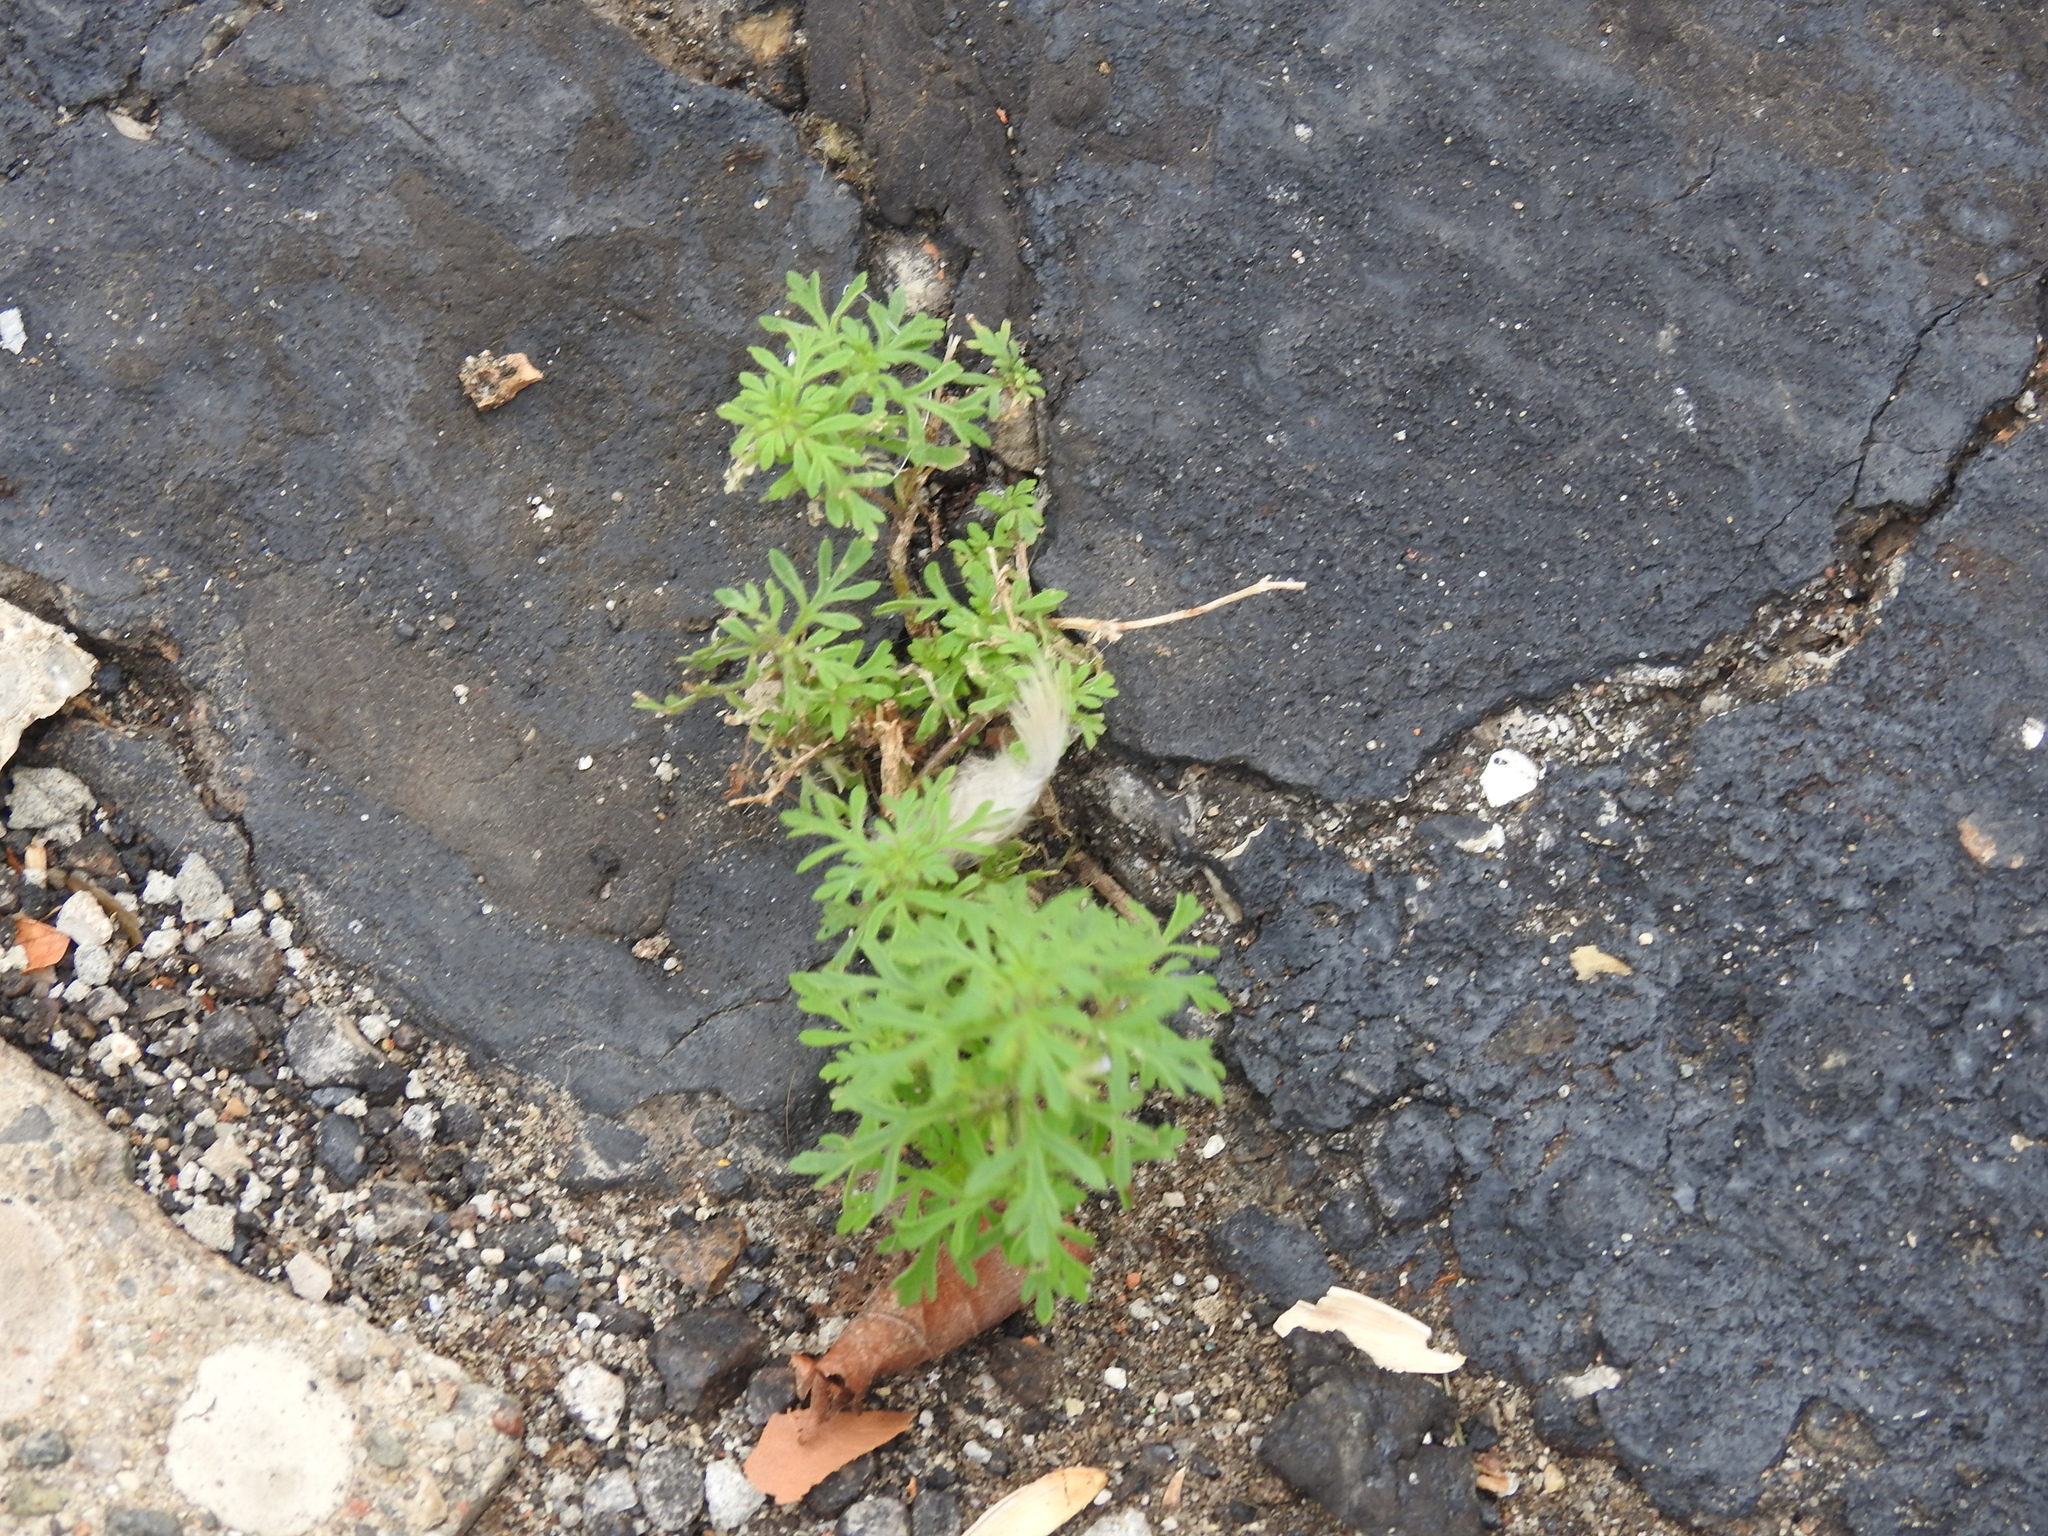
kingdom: Plantae
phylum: Tracheophyta
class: Magnoliopsida
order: Lamiales
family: Plantaginaceae
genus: Leucospora
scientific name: Leucospora multifida
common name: Narrow-leaf paleseed
